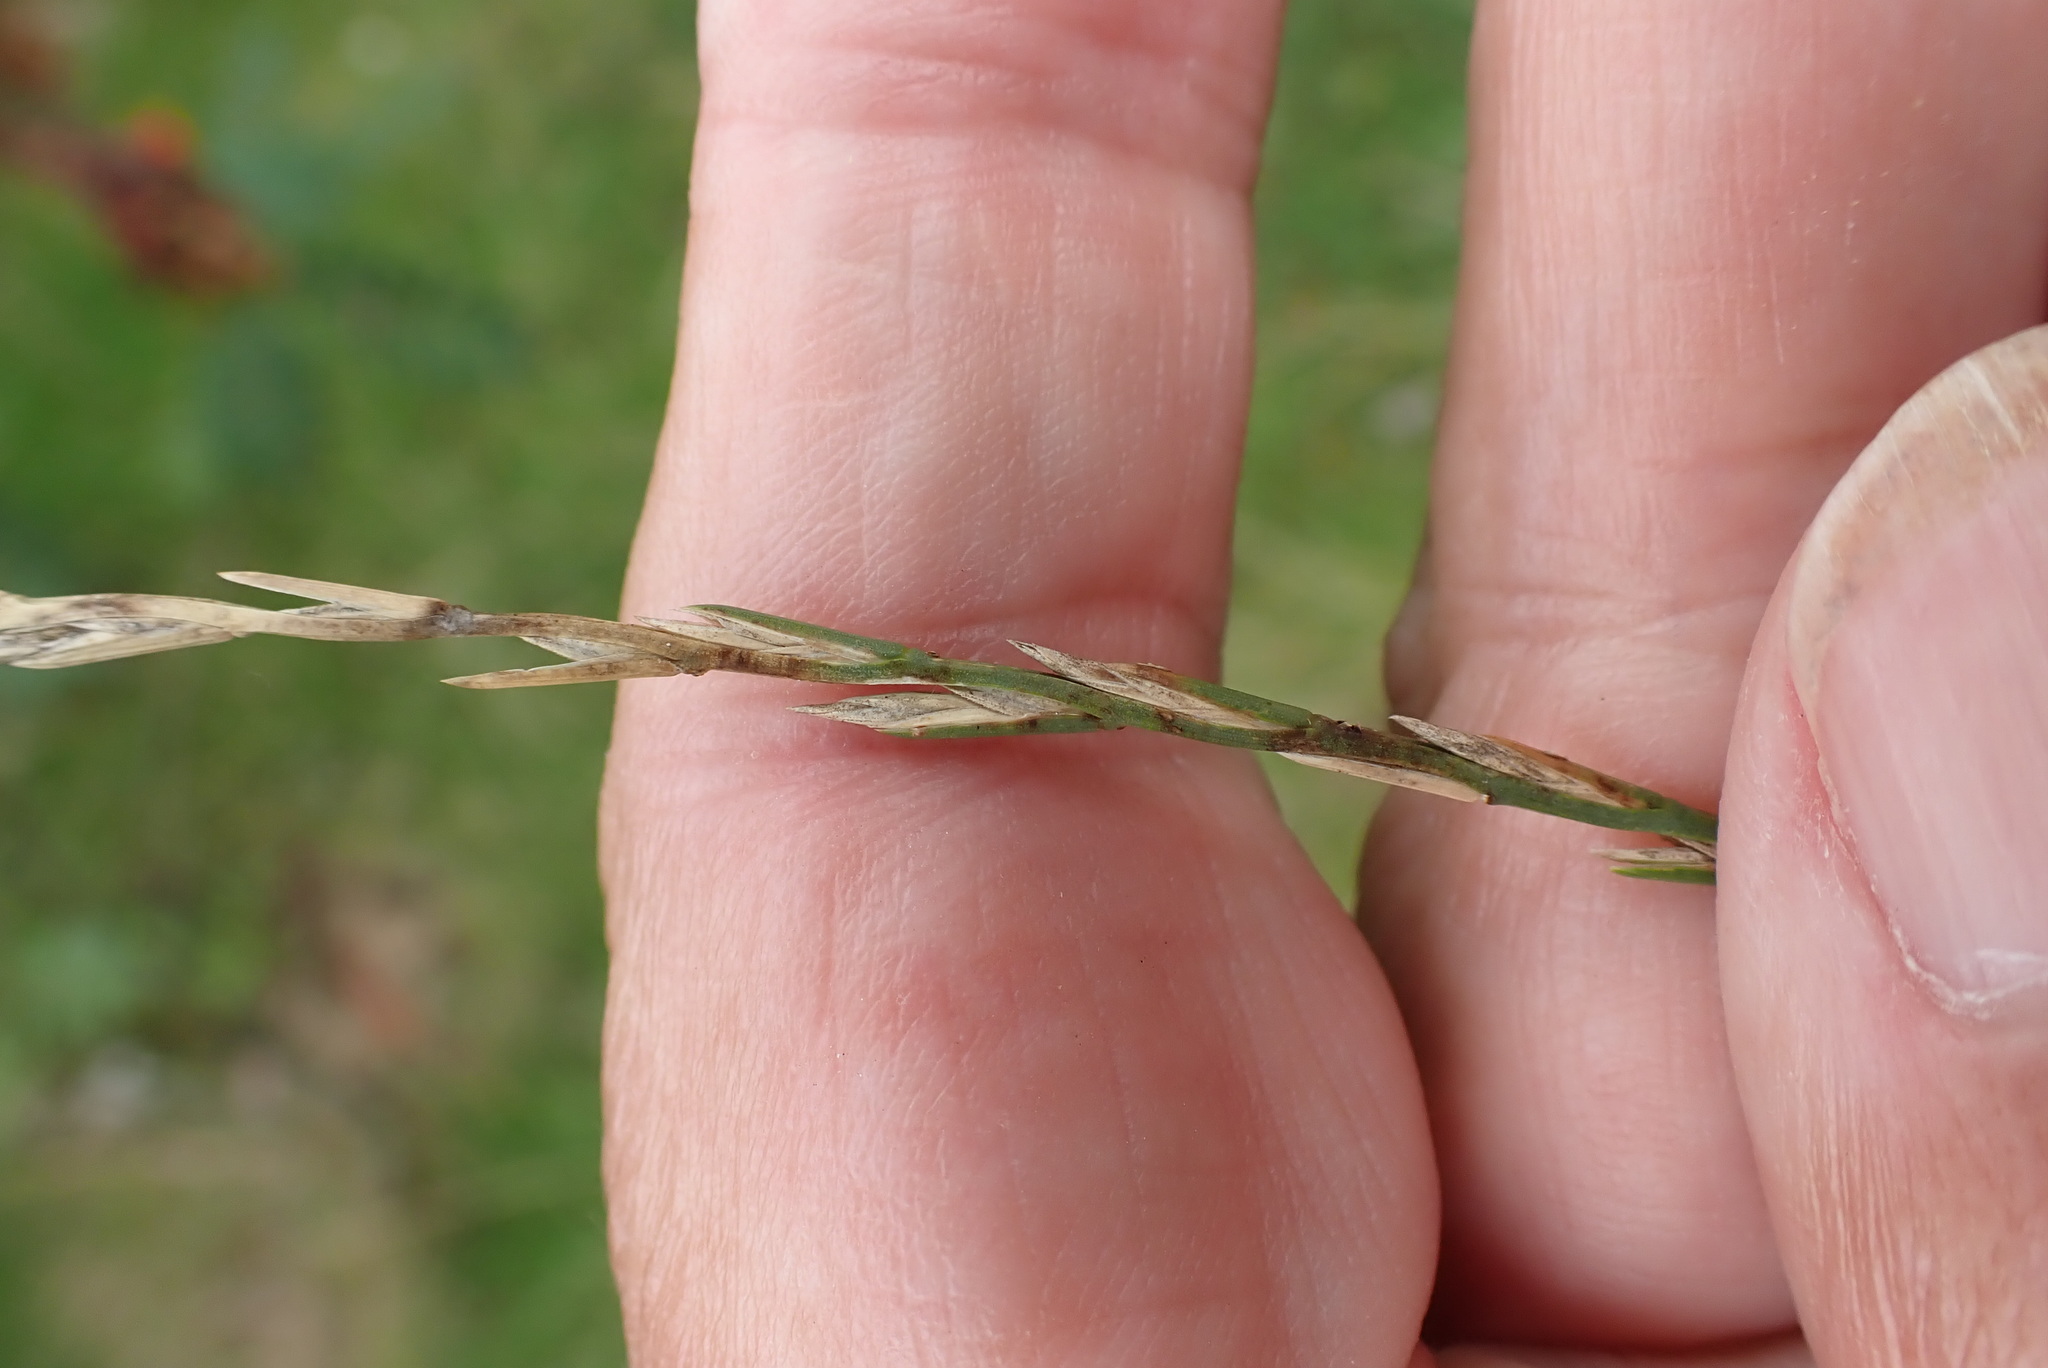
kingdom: Plantae
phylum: Tracheophyta
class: Liliopsida
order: Poales
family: Poaceae
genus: Lolium
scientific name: Lolium perenne
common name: Perennial ryegrass
